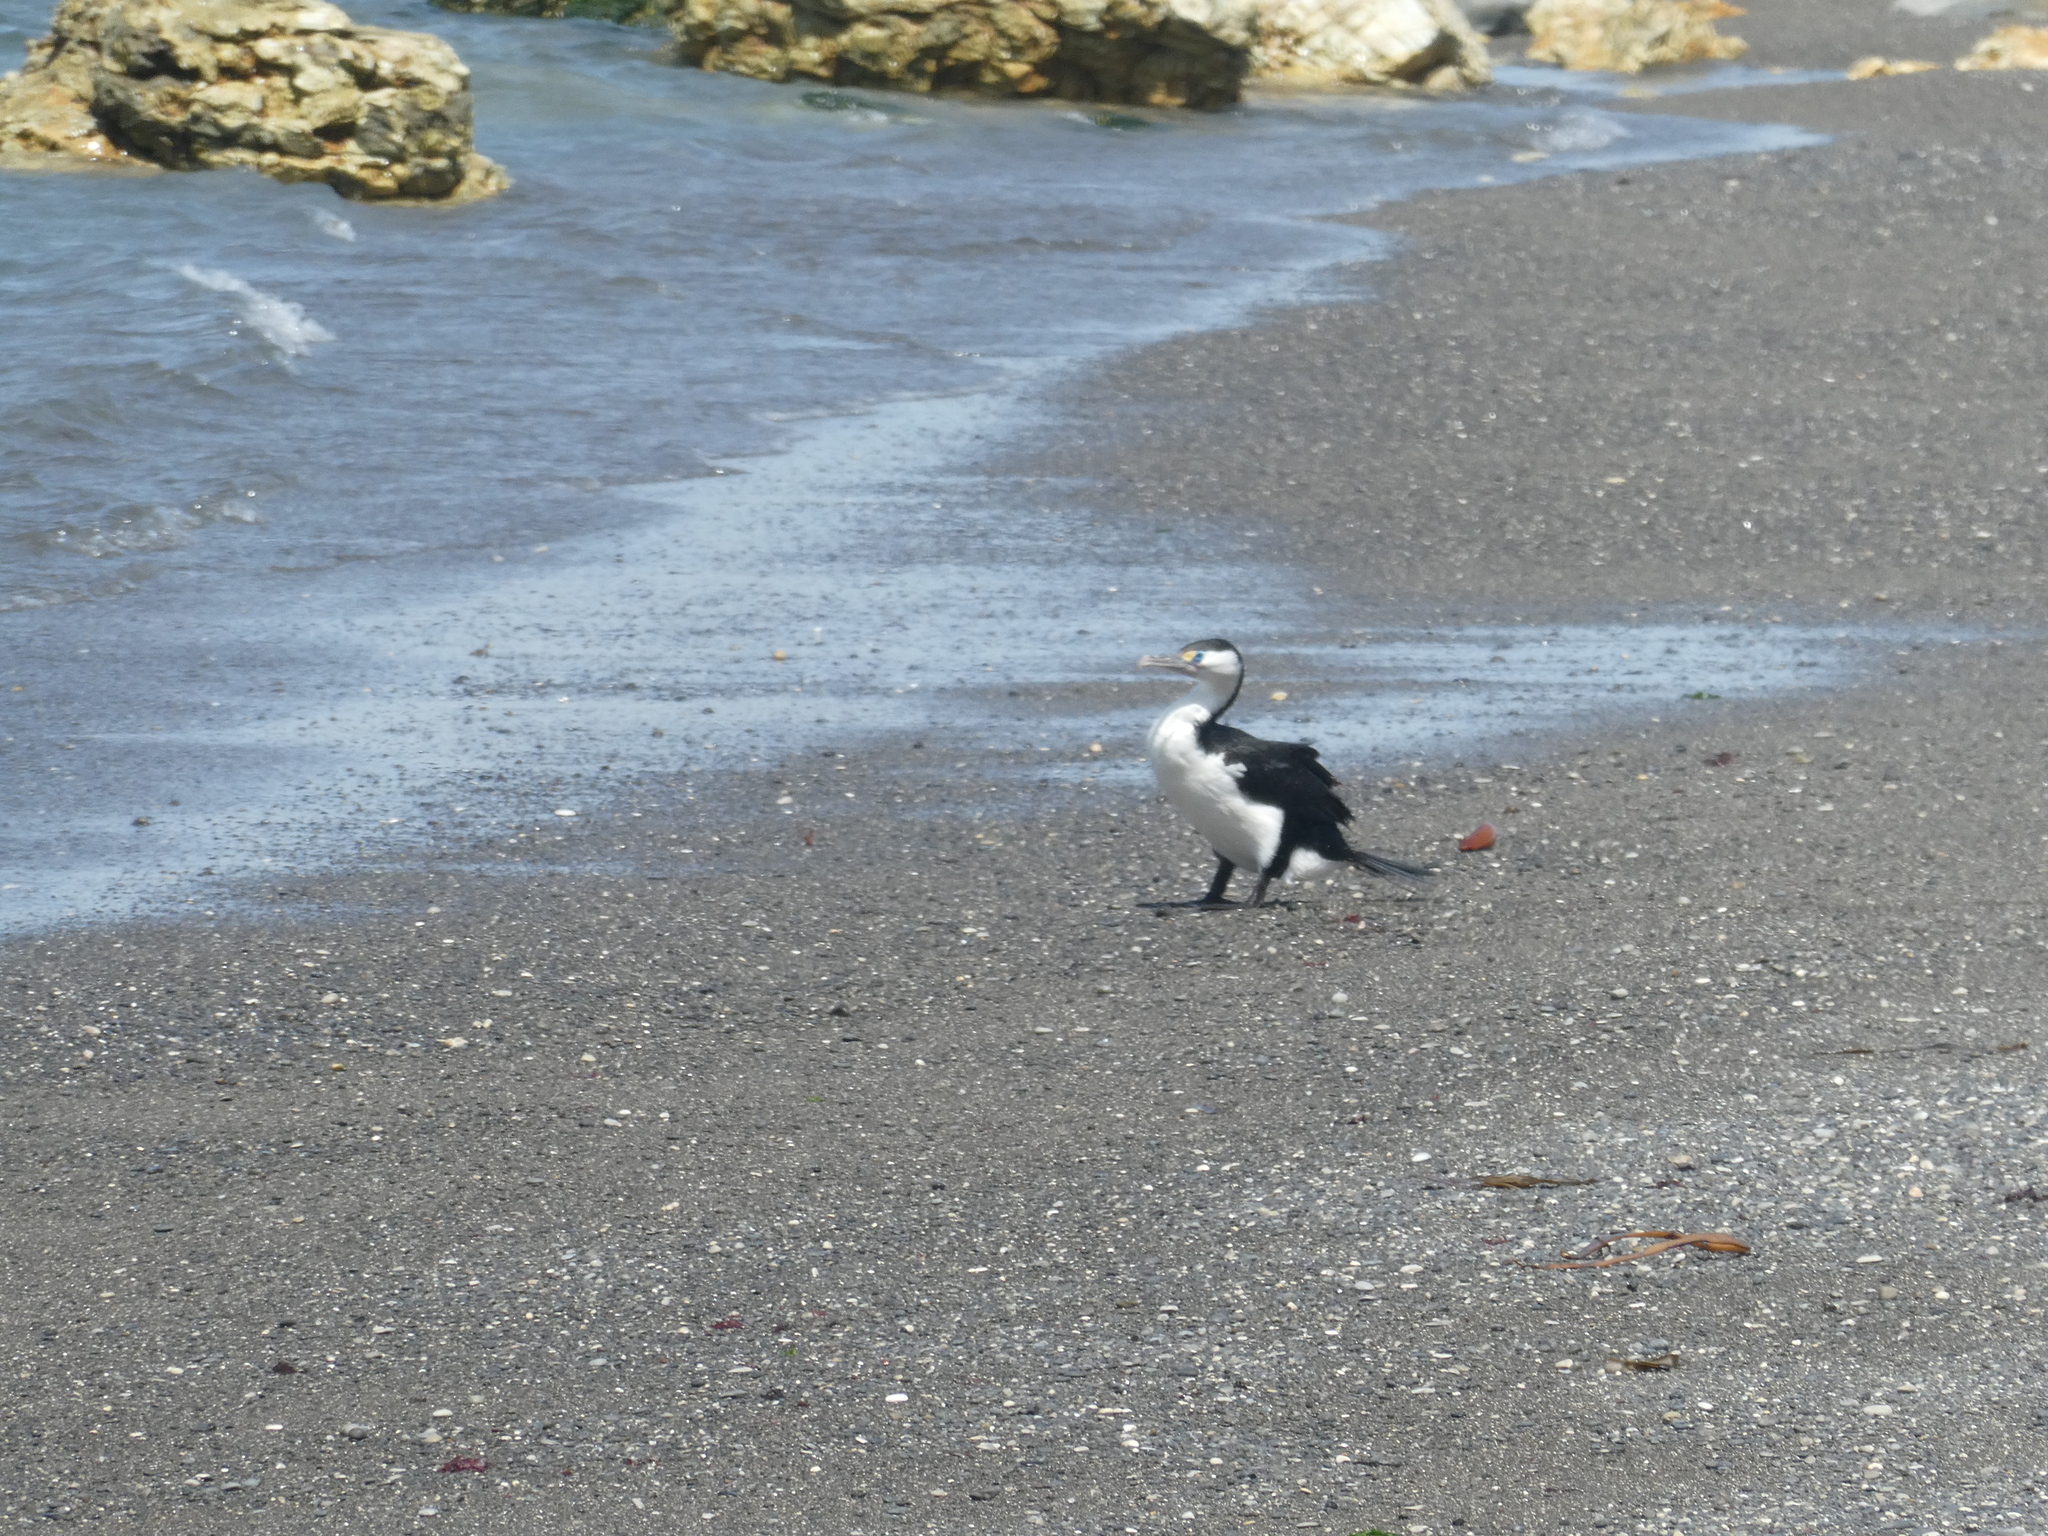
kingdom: Animalia
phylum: Chordata
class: Aves
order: Suliformes
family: Phalacrocoracidae
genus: Phalacrocorax
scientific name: Phalacrocorax varius
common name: Pied cormorant
